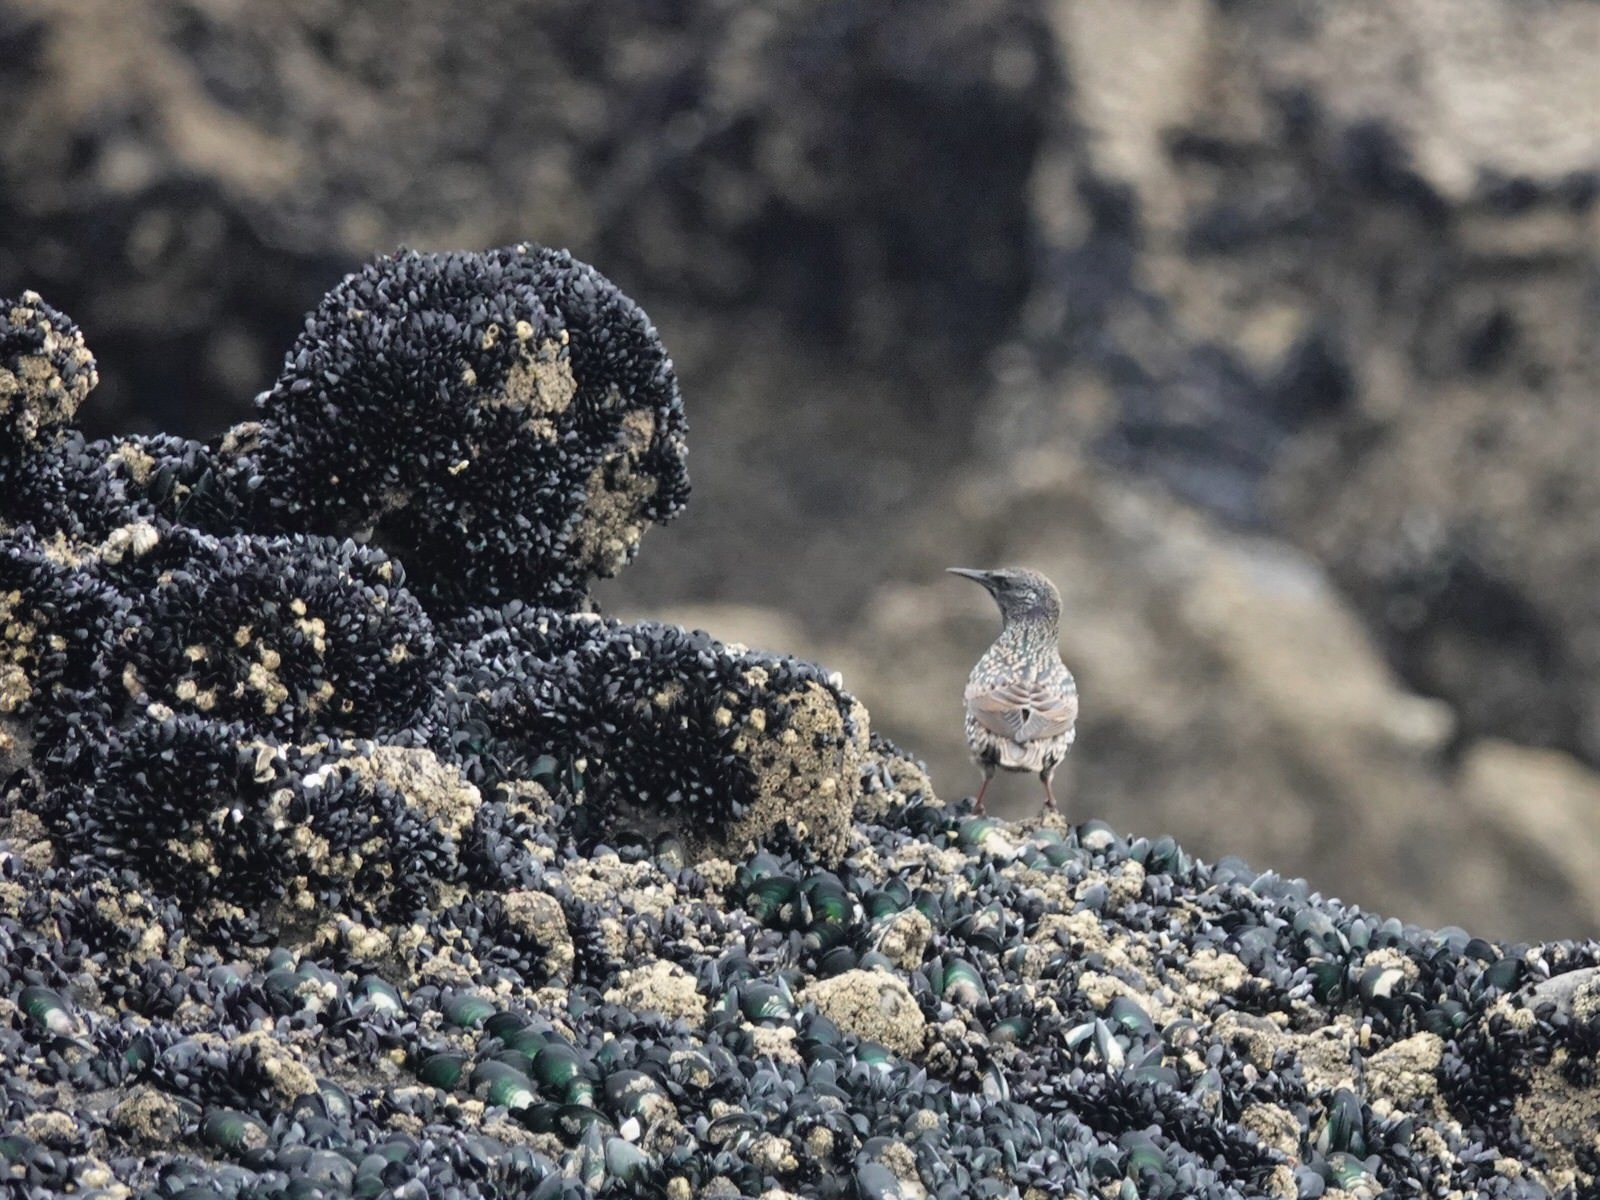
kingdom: Animalia
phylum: Chordata
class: Aves
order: Passeriformes
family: Sturnidae
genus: Sturnus
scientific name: Sturnus vulgaris
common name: Common starling
